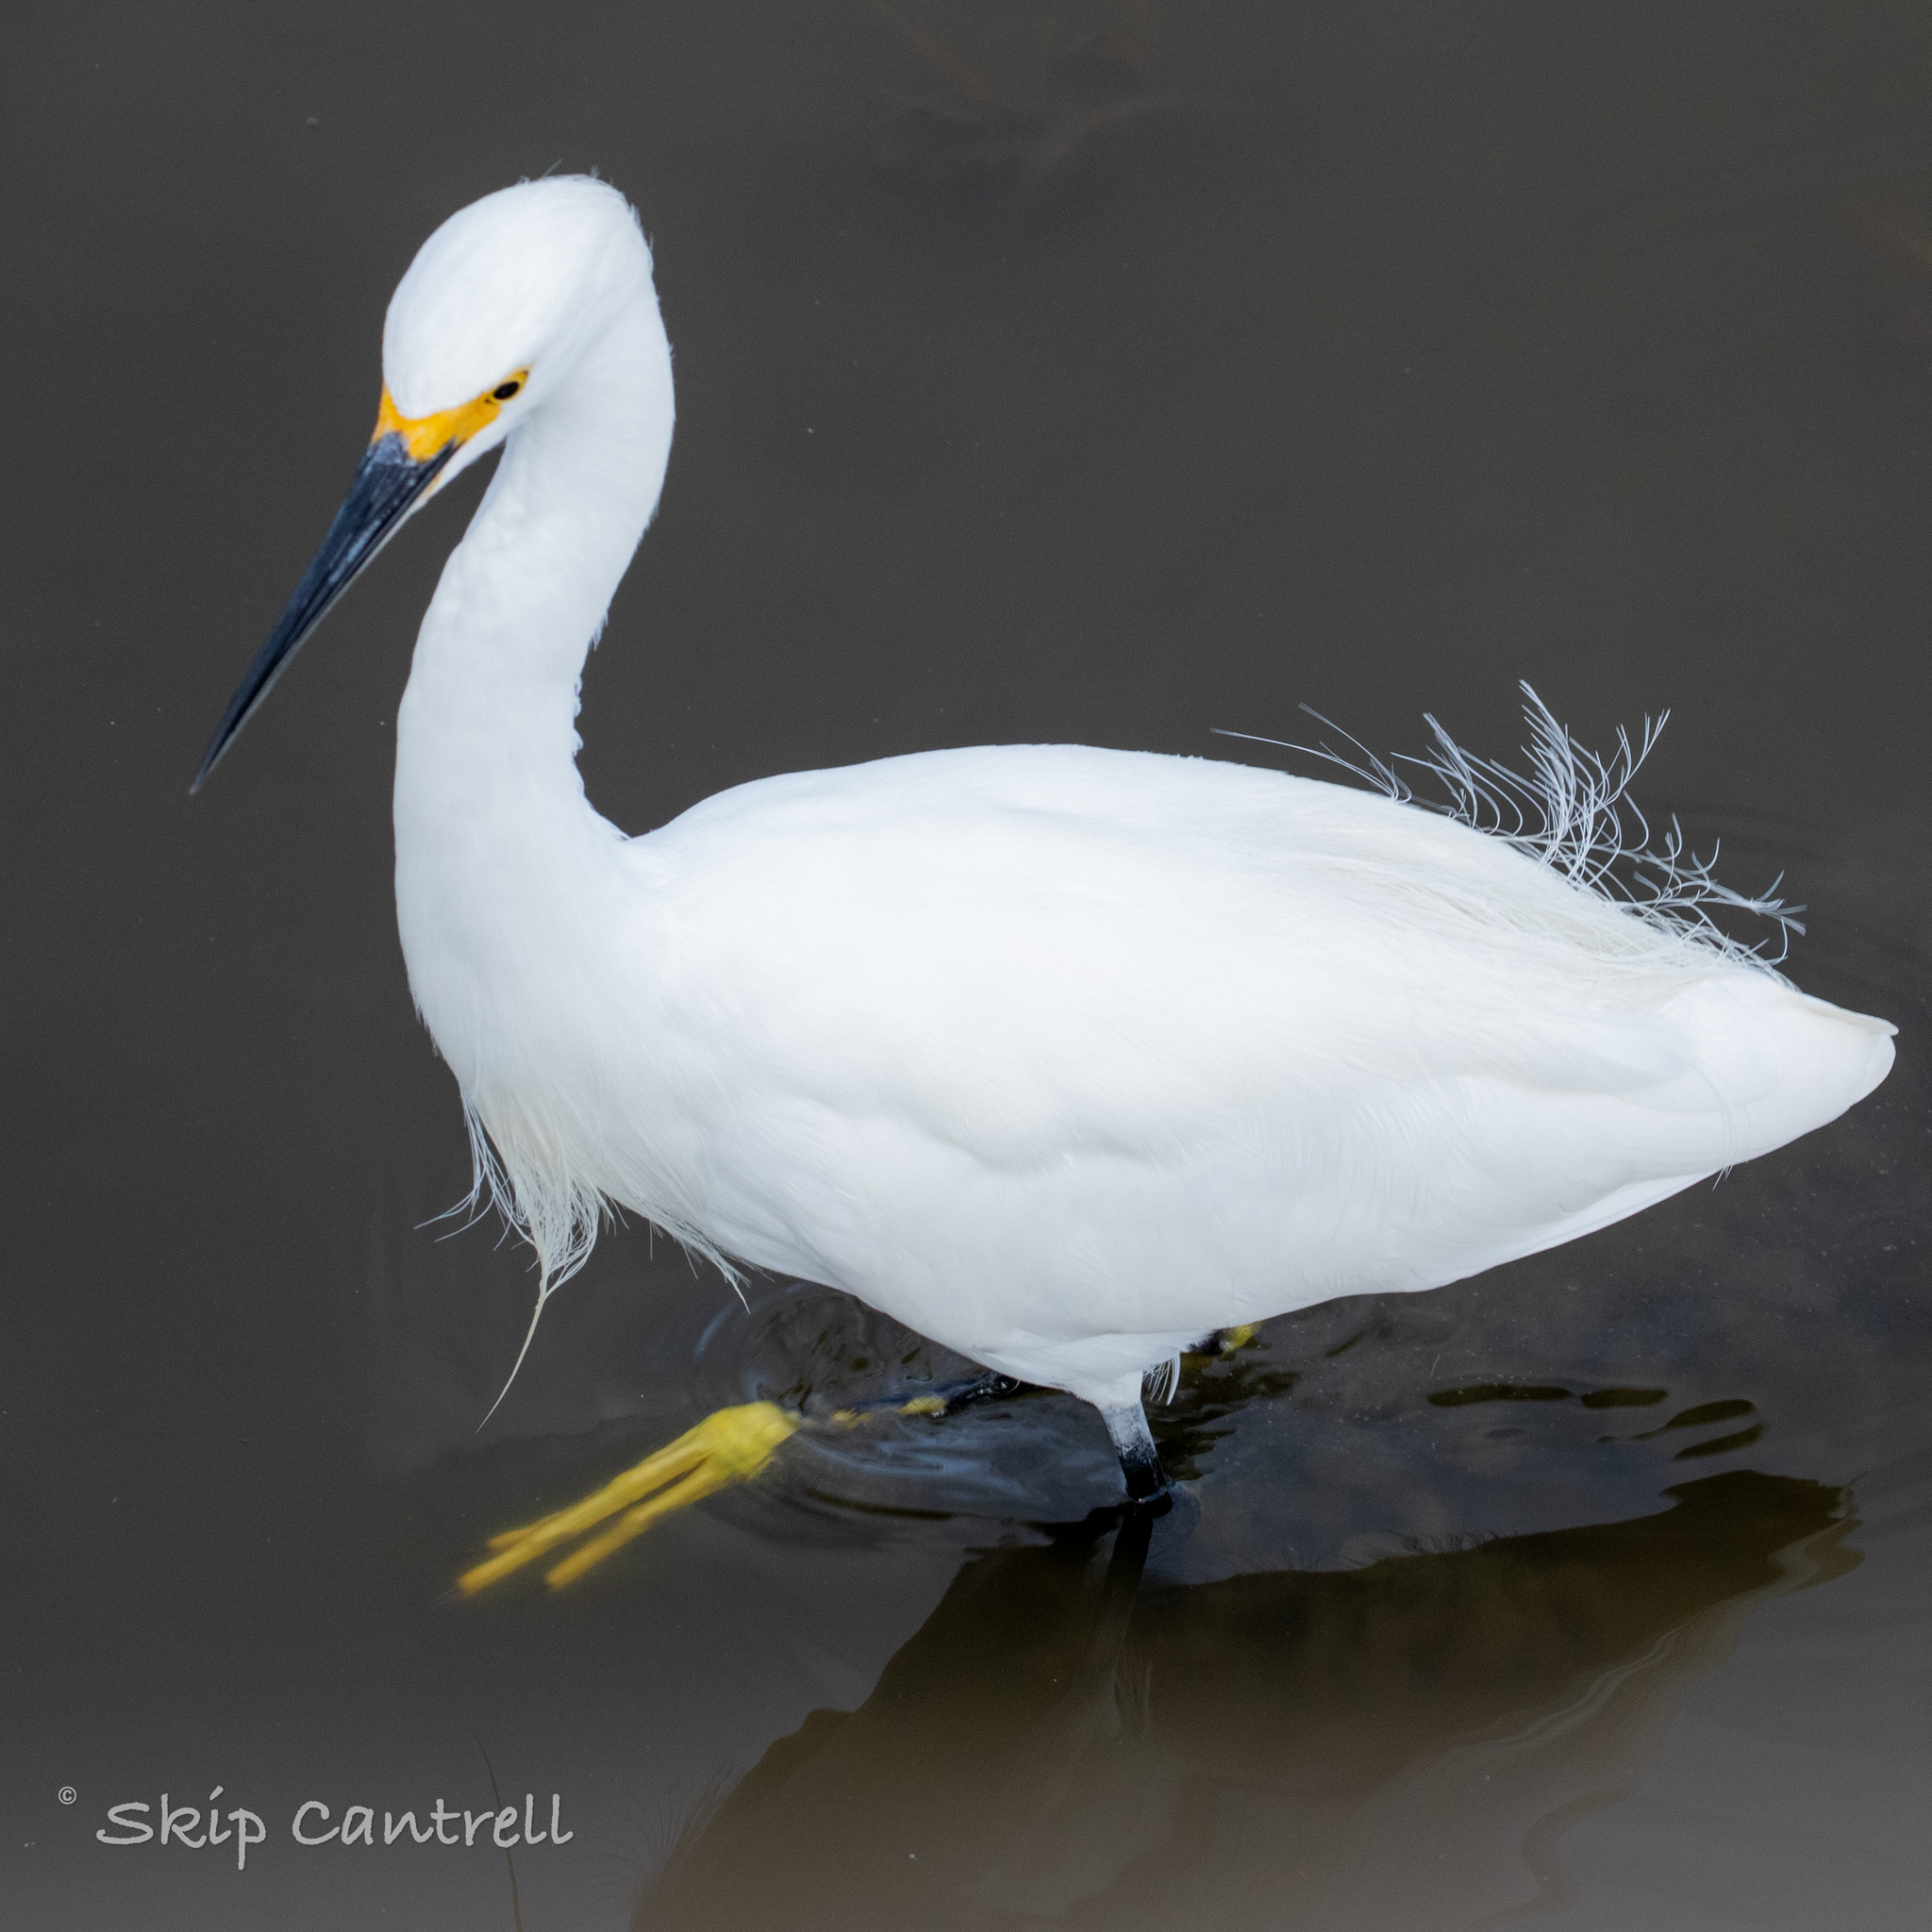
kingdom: Animalia
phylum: Chordata
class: Aves
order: Pelecaniformes
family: Ardeidae
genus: Egretta
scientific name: Egretta thula
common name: Snowy egret
